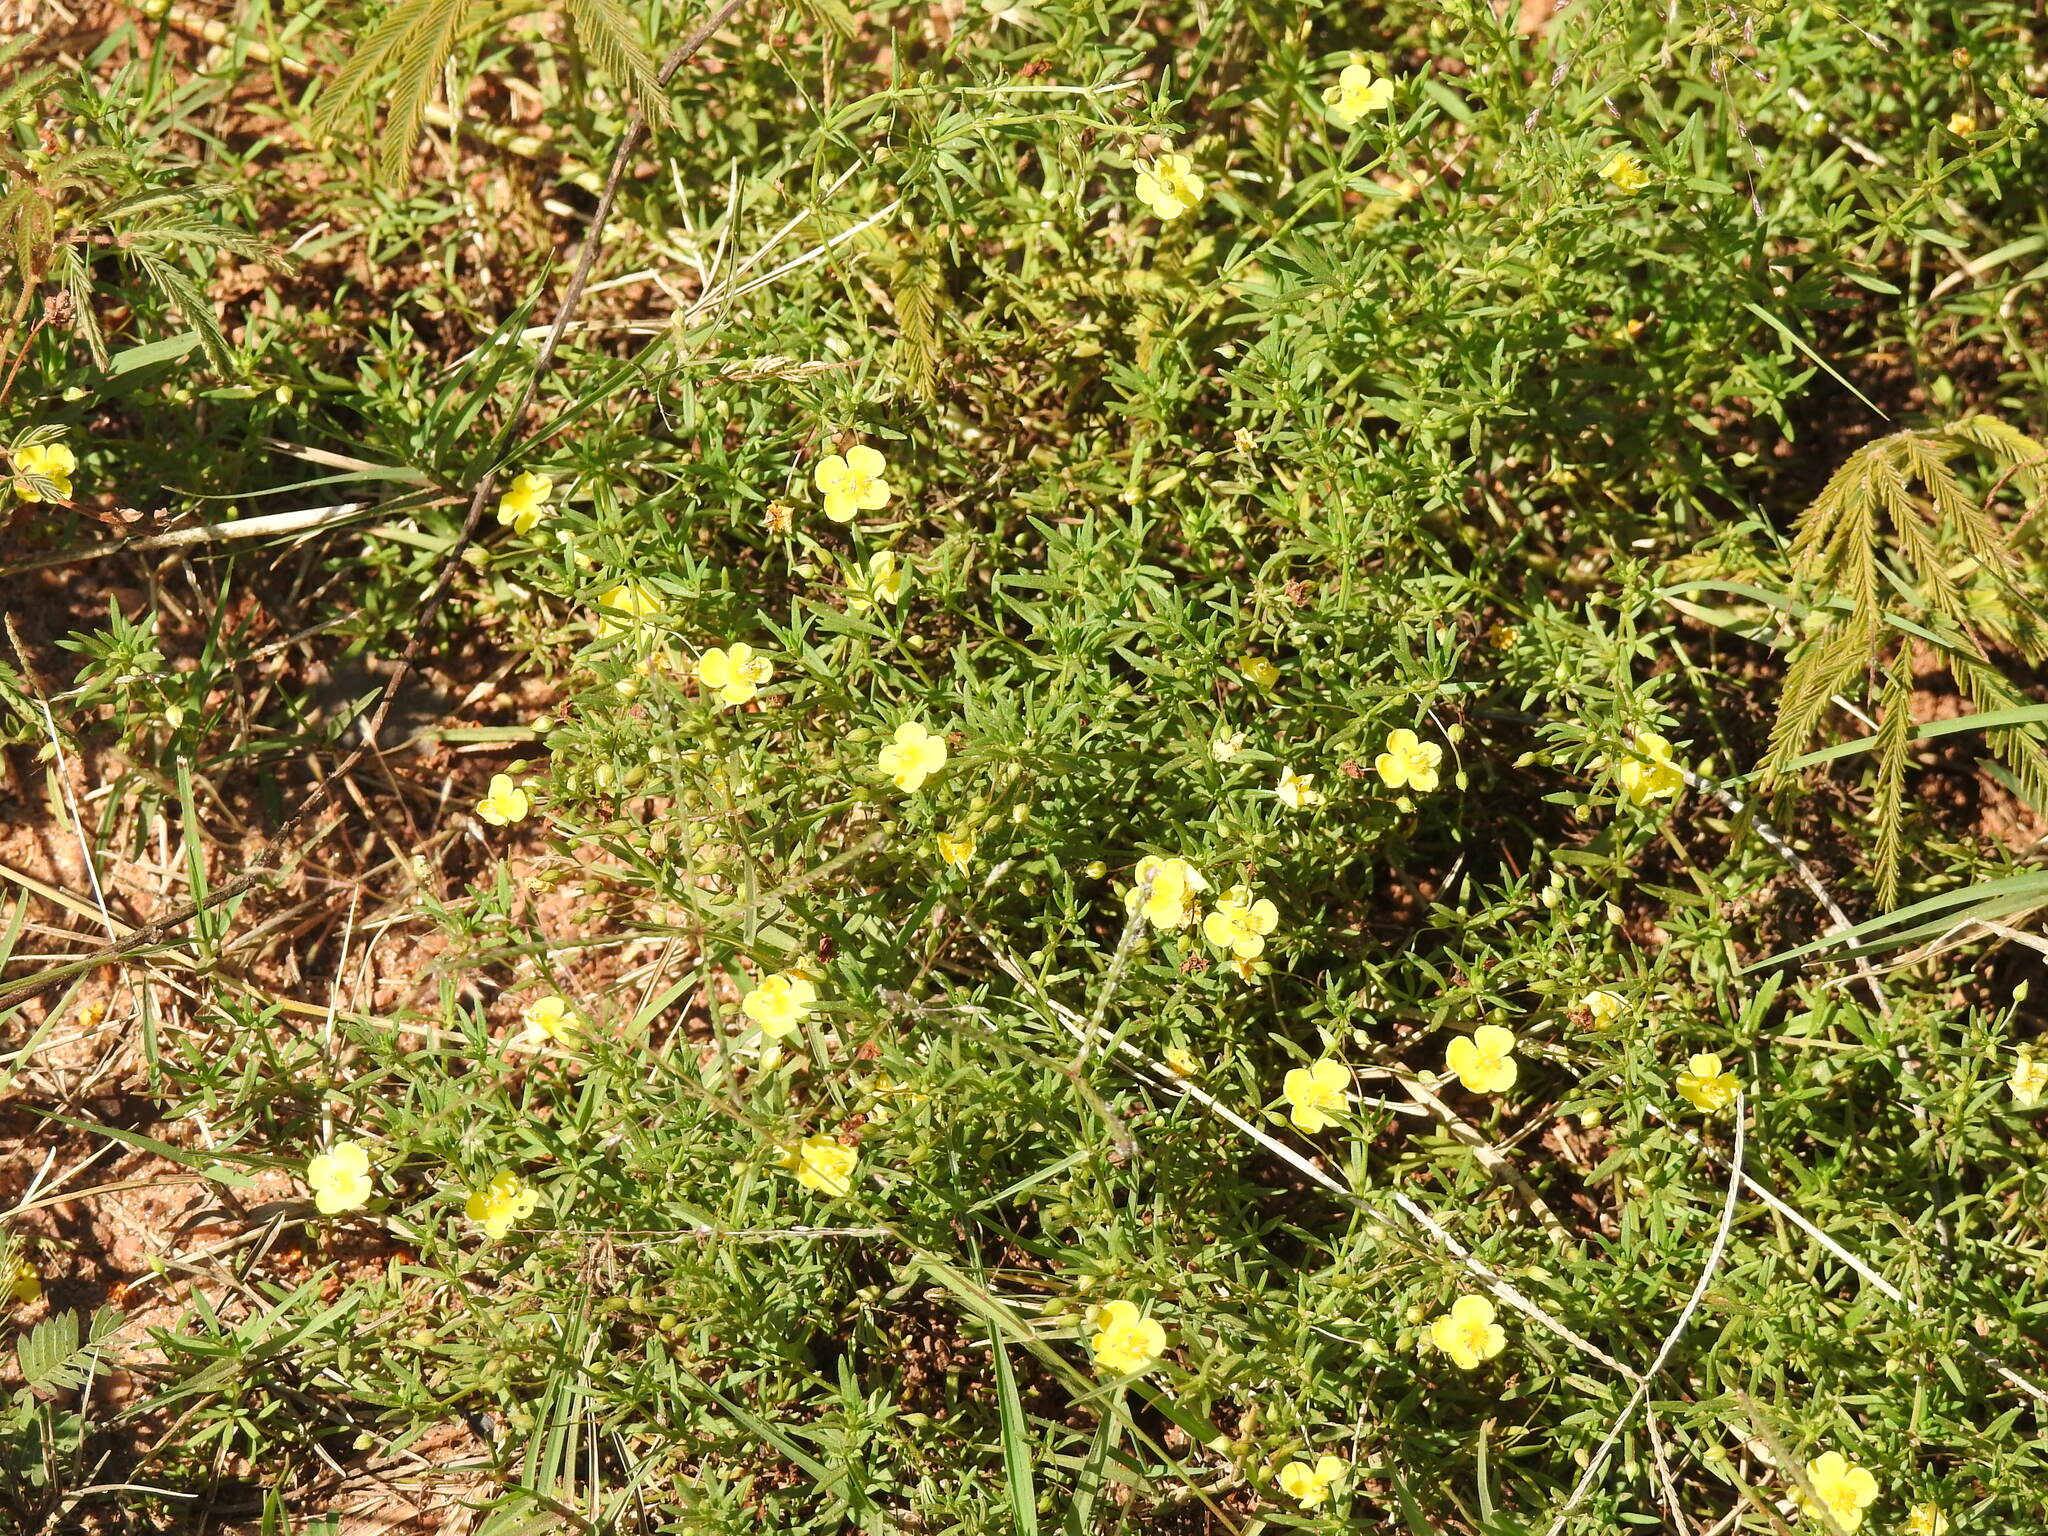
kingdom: Plantae
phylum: Tracheophyta
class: Magnoliopsida
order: Lamiales
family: Plantaginaceae
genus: Scoparia
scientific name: Scoparia montevidensis
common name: Broomwort
